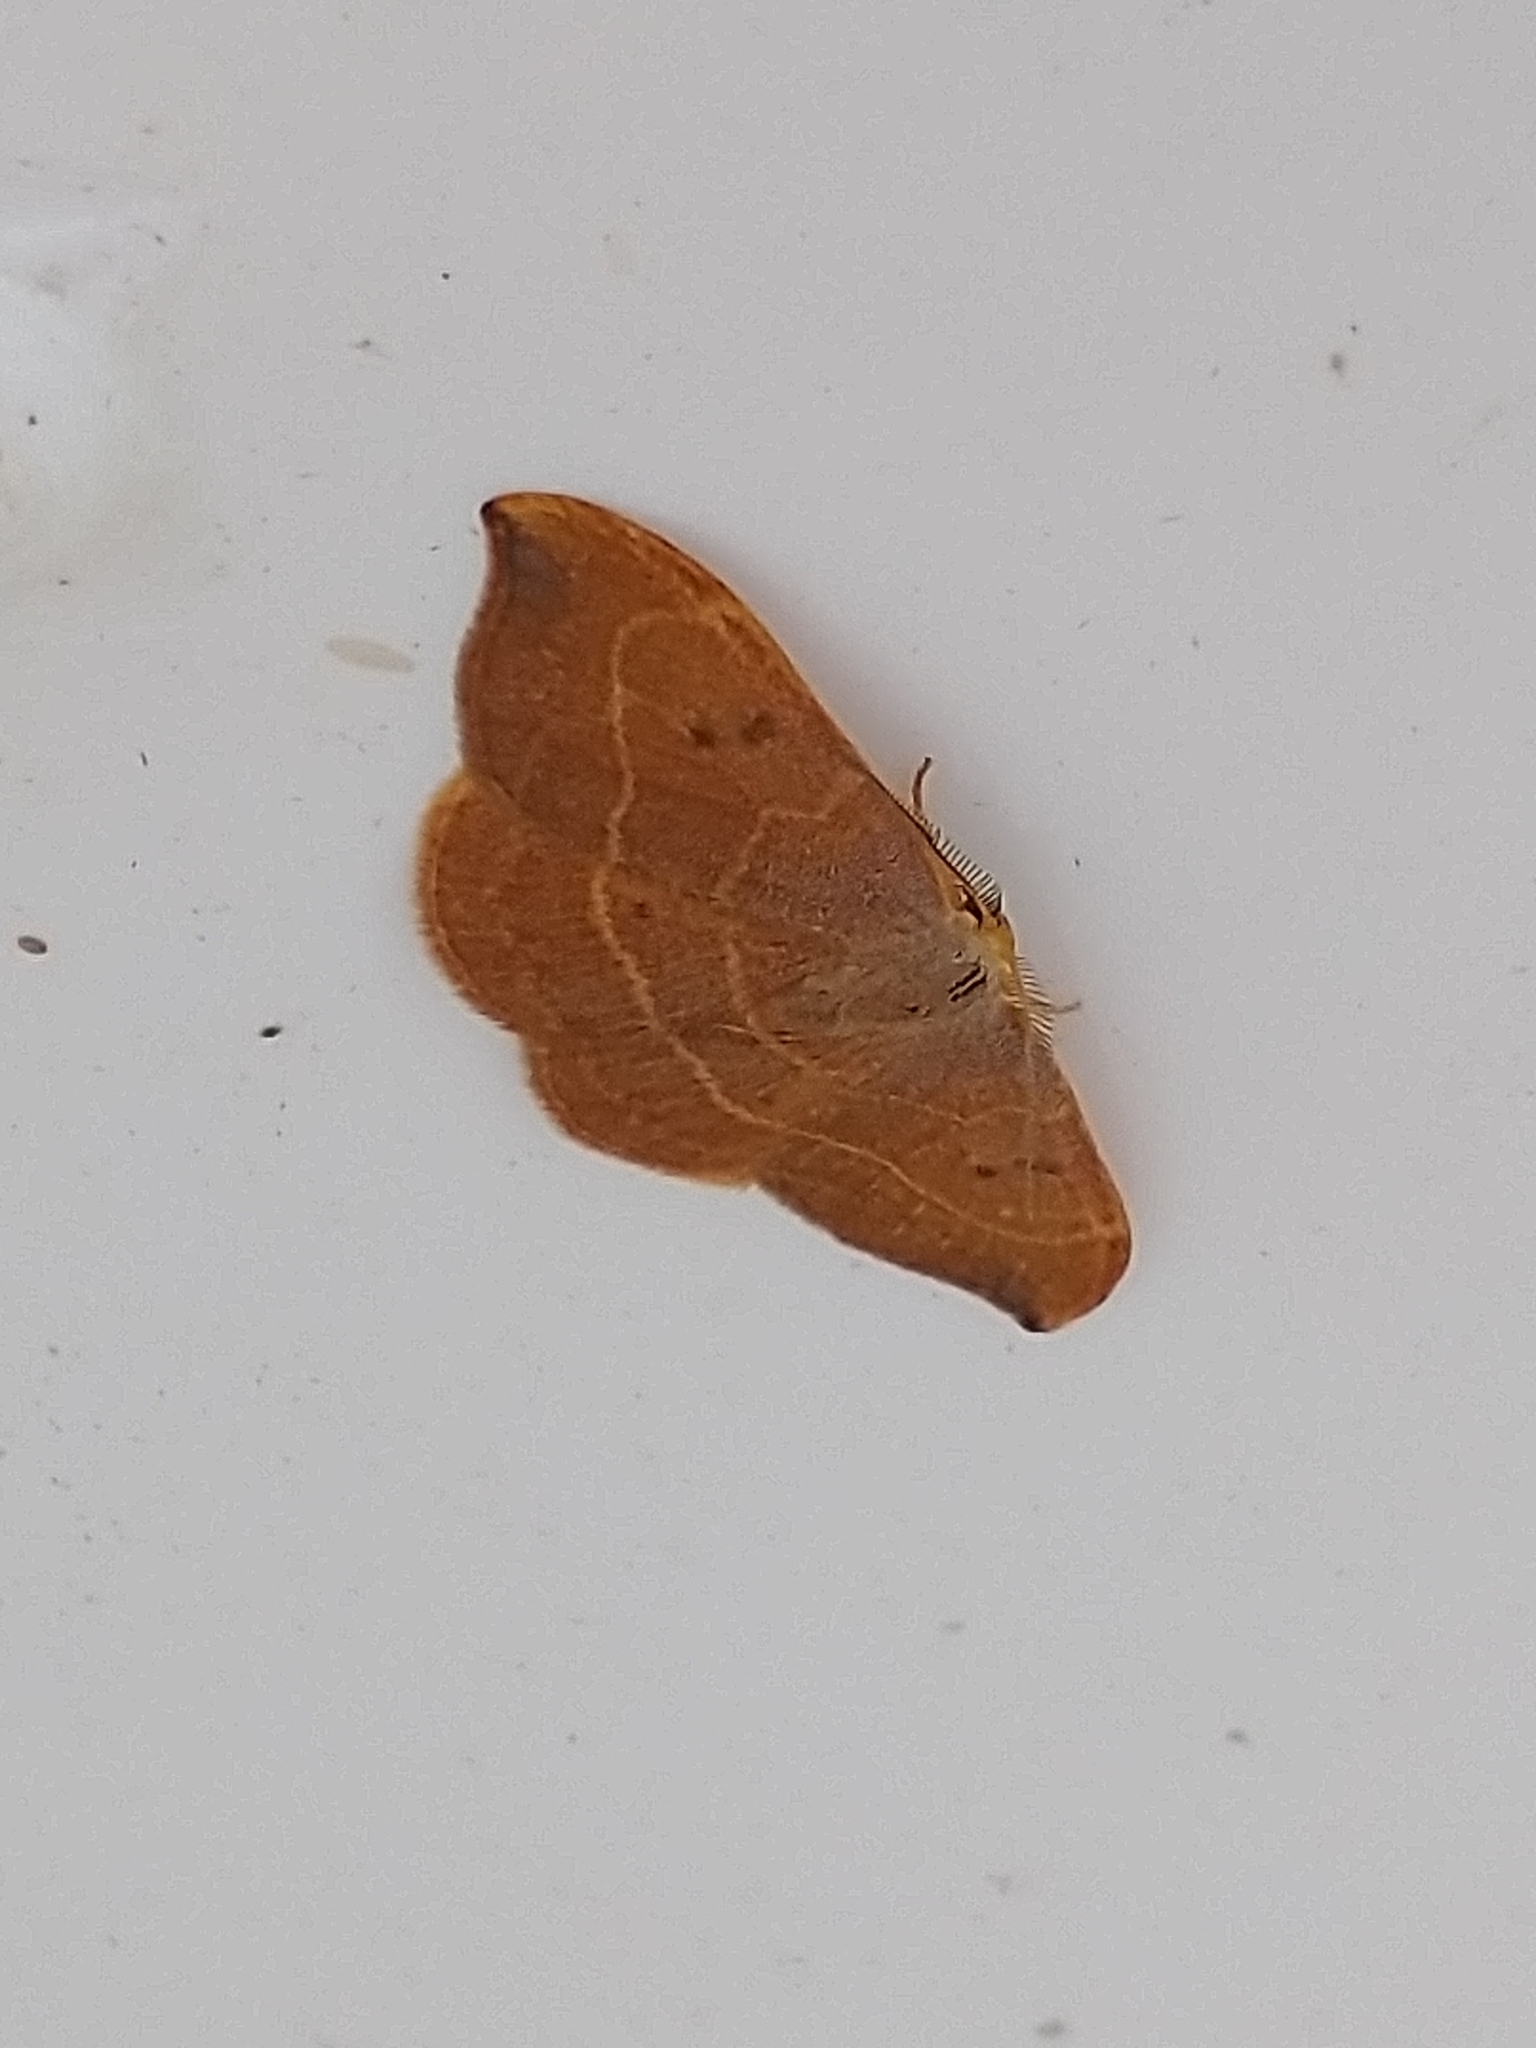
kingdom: Animalia
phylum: Arthropoda
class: Insecta
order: Lepidoptera
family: Drepanidae
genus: Watsonalla
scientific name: Watsonalla binaria
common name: Oak hook-tip
